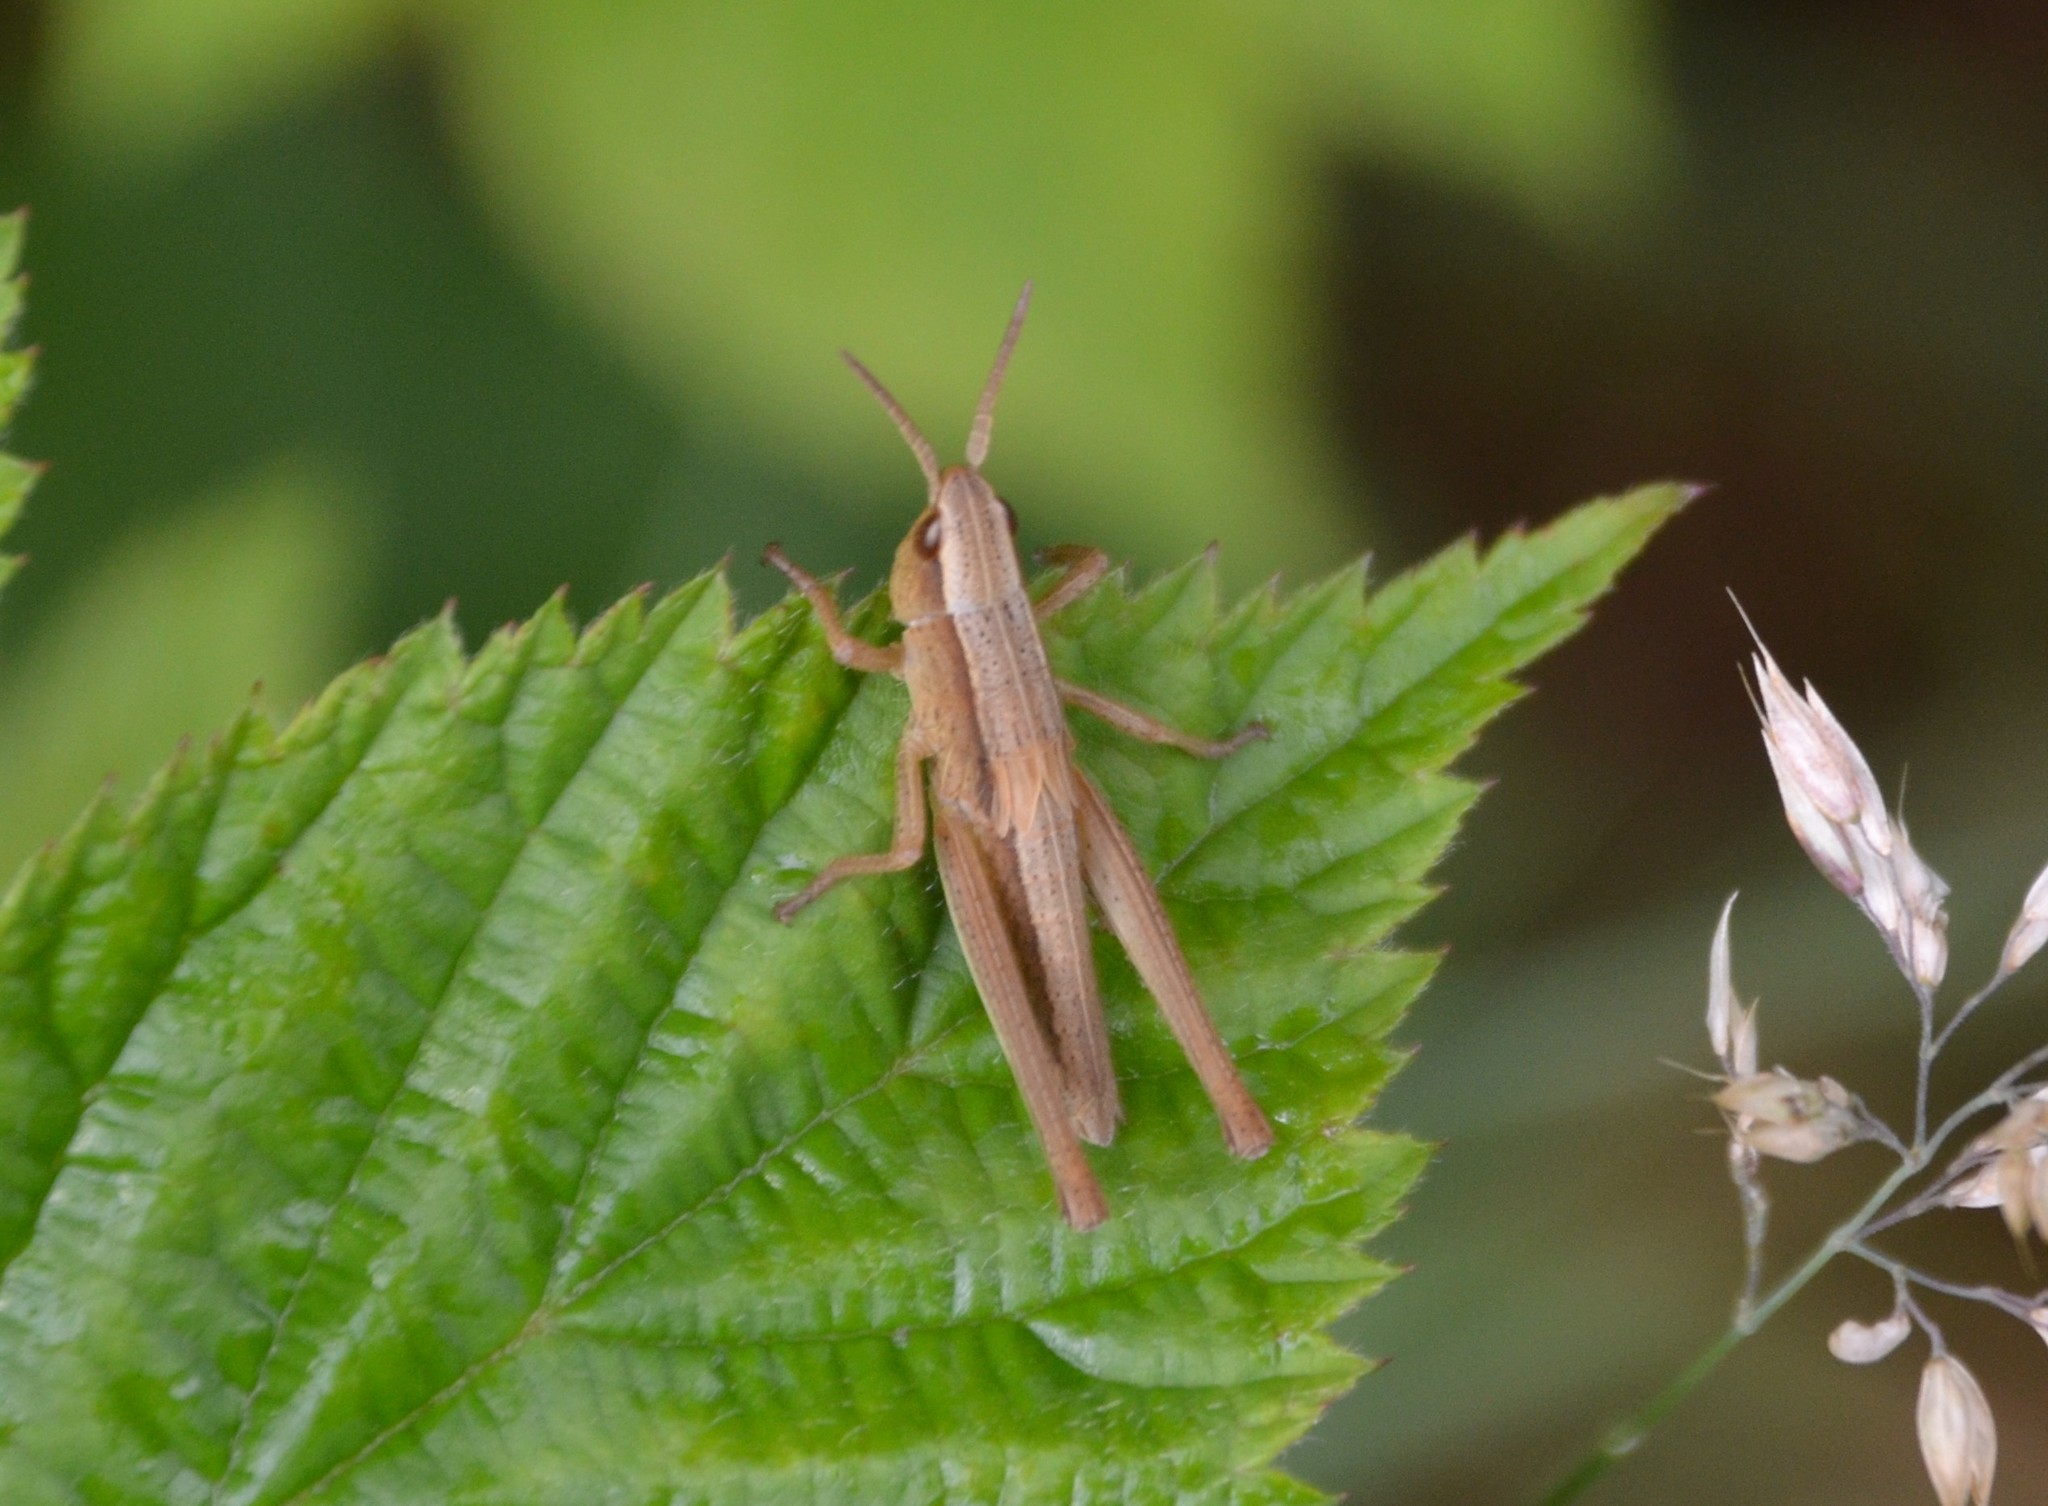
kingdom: Animalia
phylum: Arthropoda
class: Insecta
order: Orthoptera
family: Acrididae
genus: Chrysochraon
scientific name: Chrysochraon dispar
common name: Large gold grasshopper
